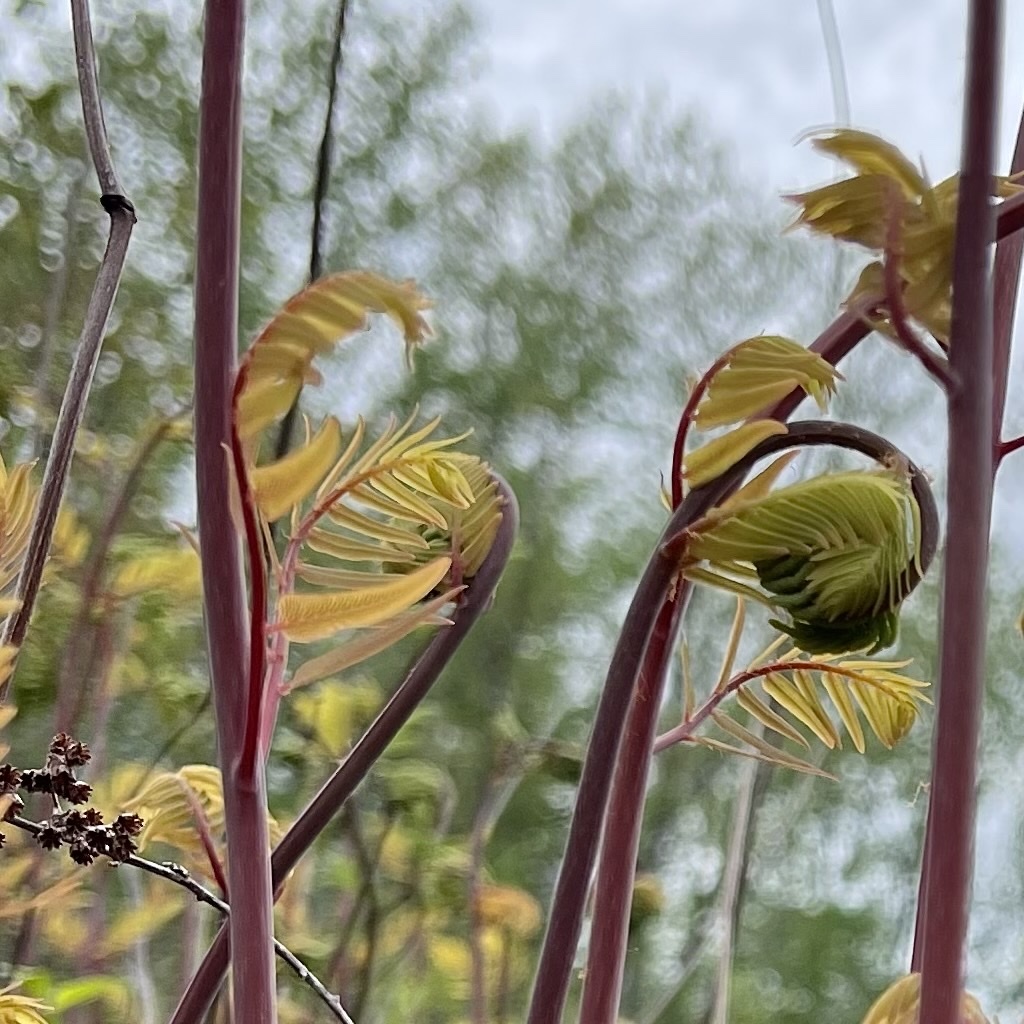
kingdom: Plantae
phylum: Tracheophyta
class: Polypodiopsida
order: Osmundales
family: Osmundaceae
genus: Osmunda
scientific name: Osmunda spectabilis
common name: American royal fern
